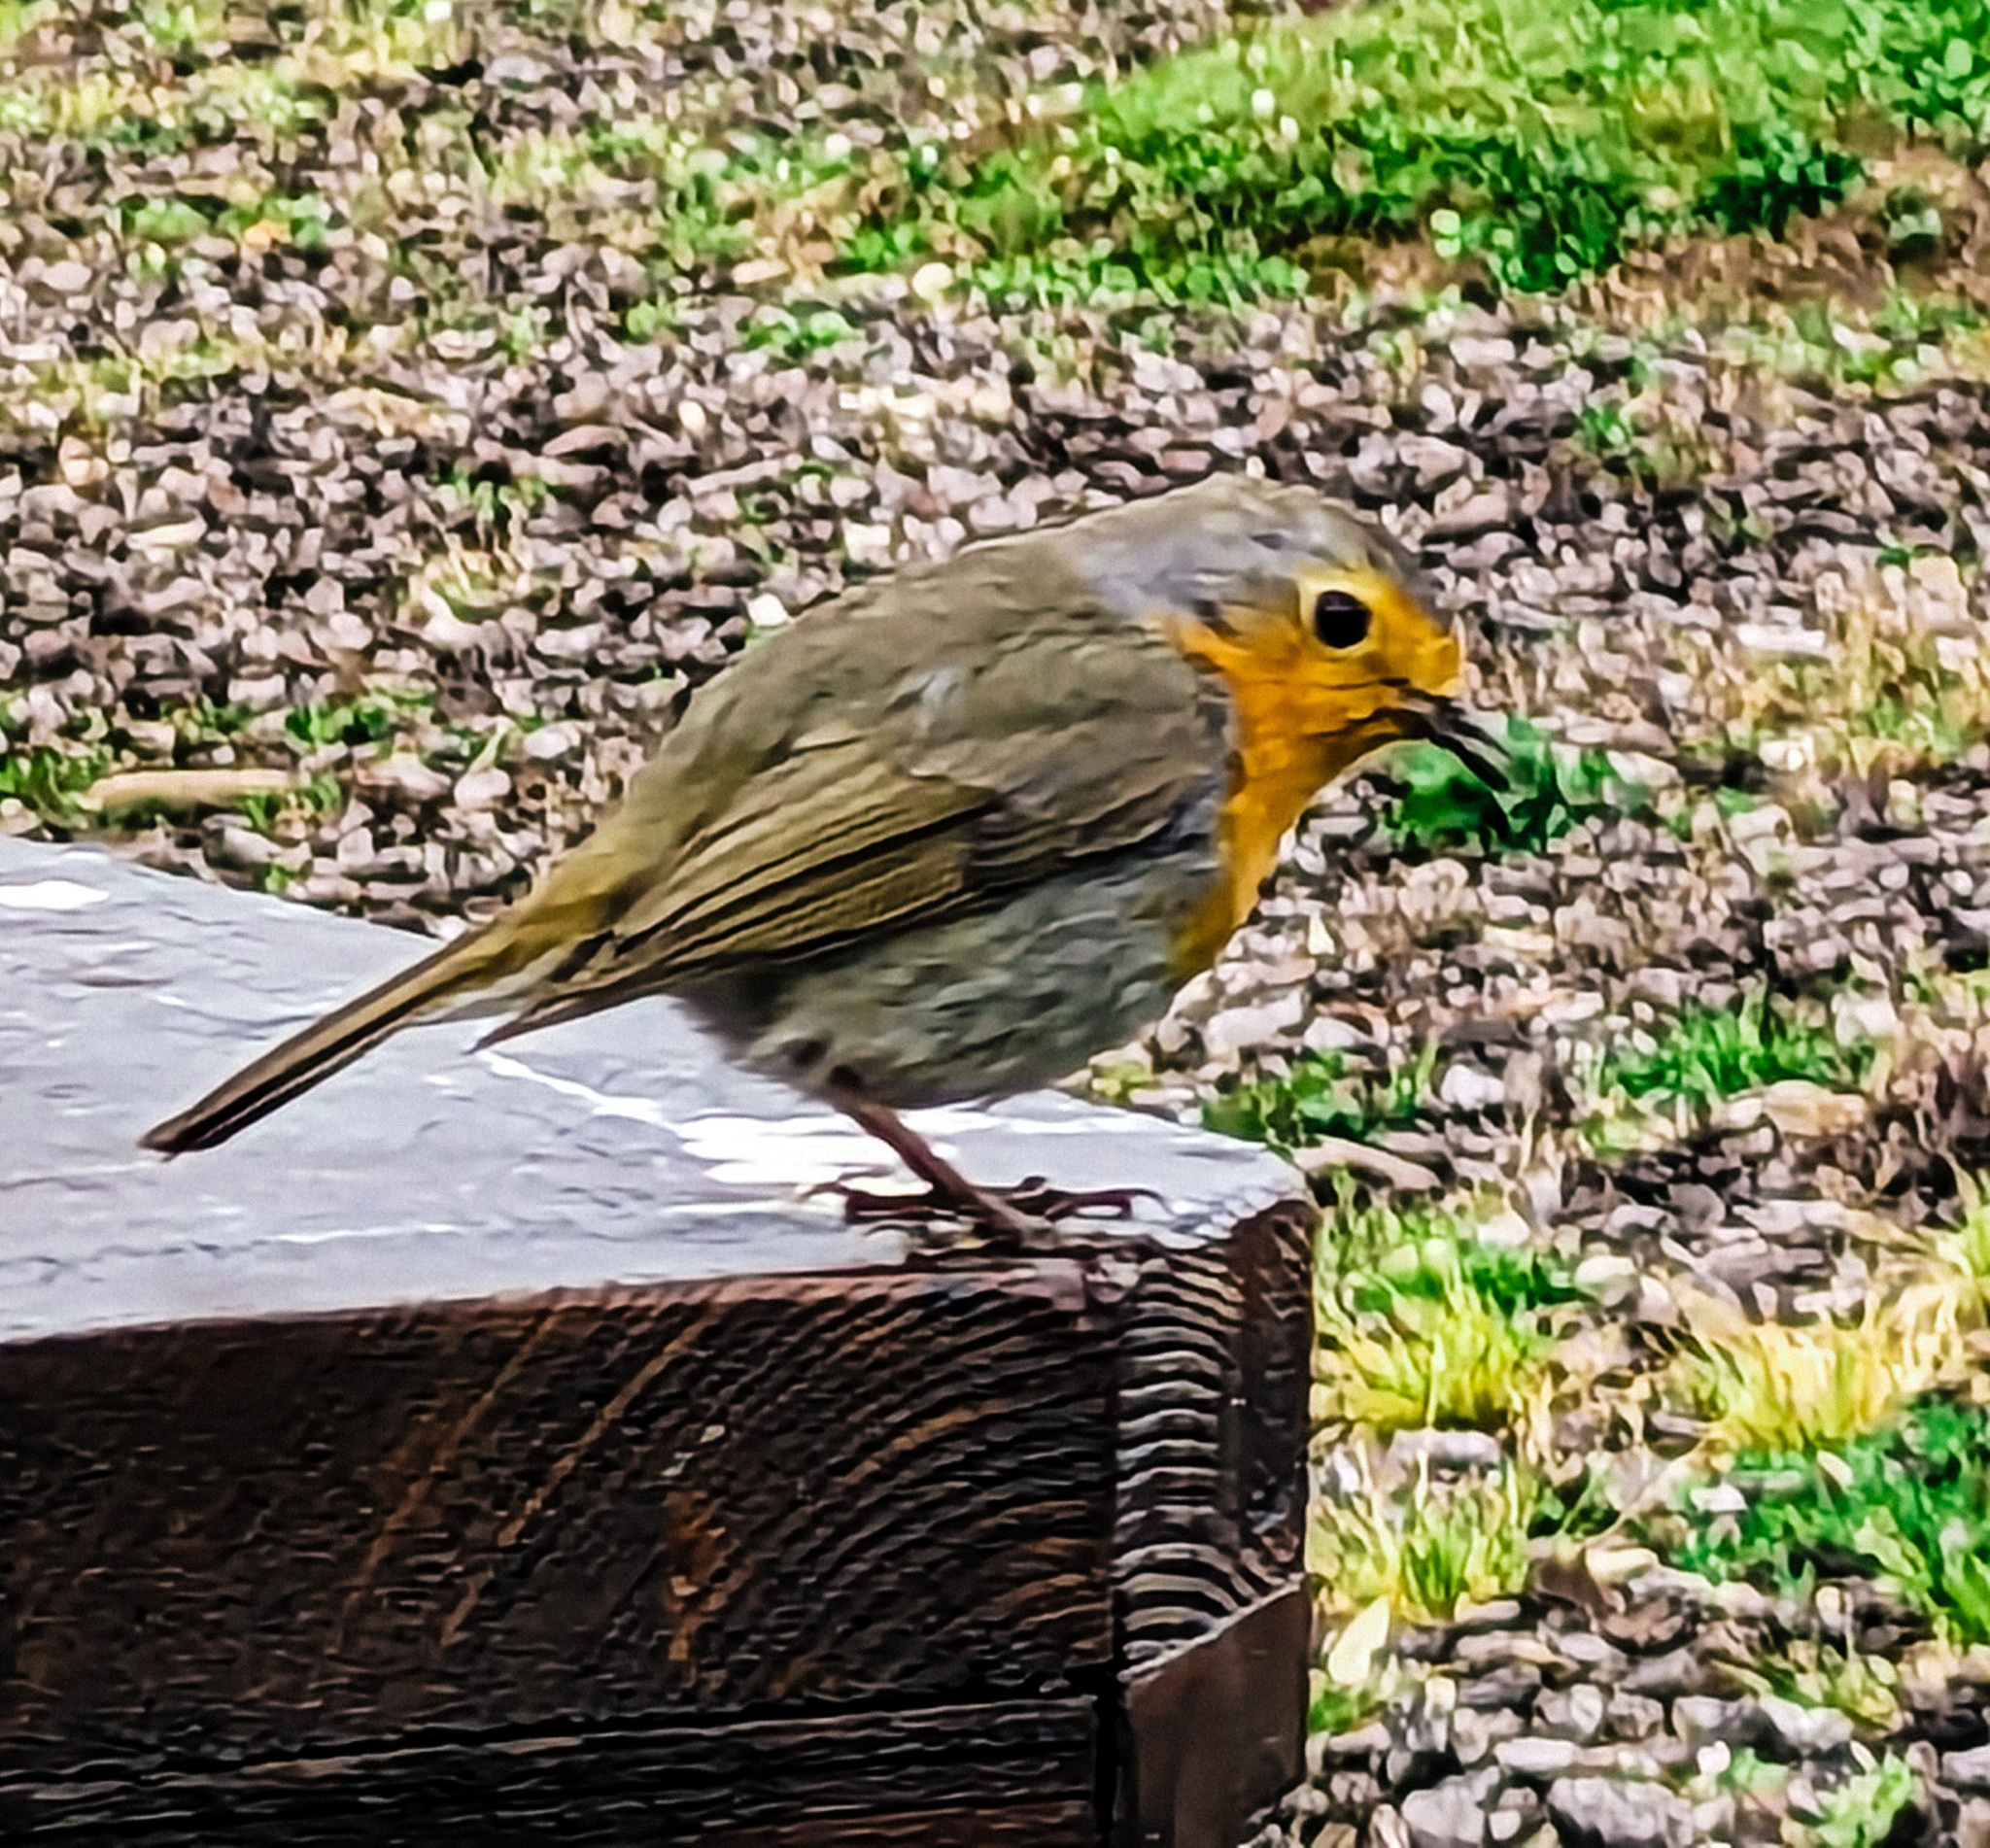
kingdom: Animalia
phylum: Chordata
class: Aves
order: Passeriformes
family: Muscicapidae
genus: Erithacus
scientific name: Erithacus rubecula
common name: European robin
